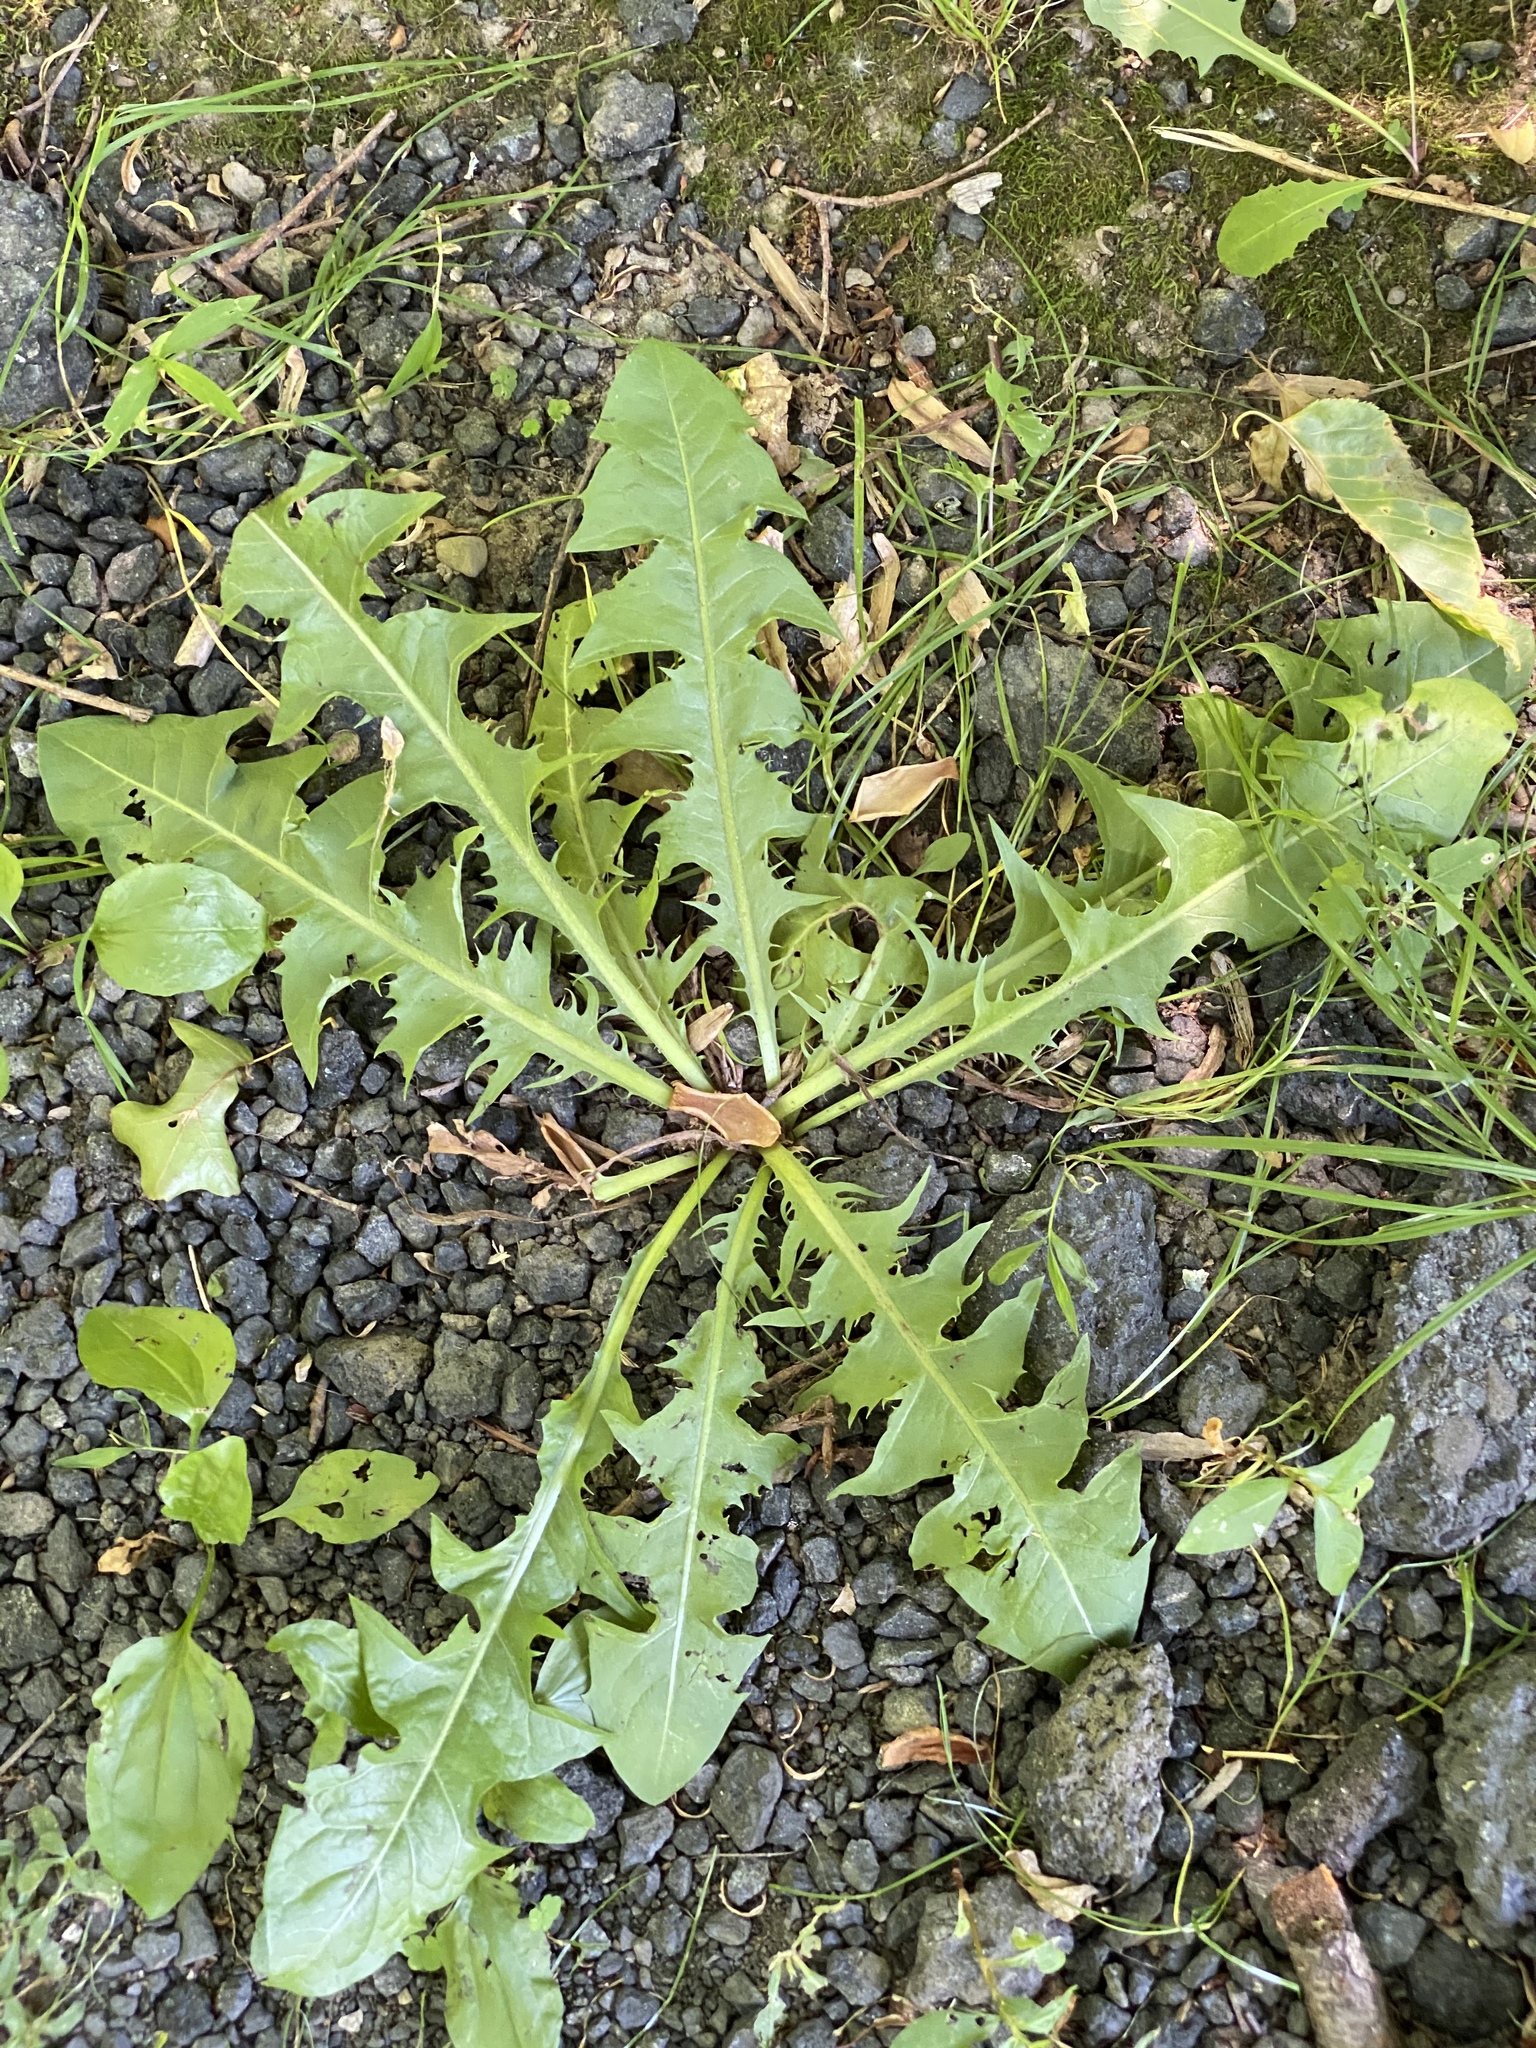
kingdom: Plantae
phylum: Tracheophyta
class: Magnoliopsida
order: Asterales
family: Asteraceae
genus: Taraxacum
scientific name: Taraxacum officinale
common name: Common dandelion
